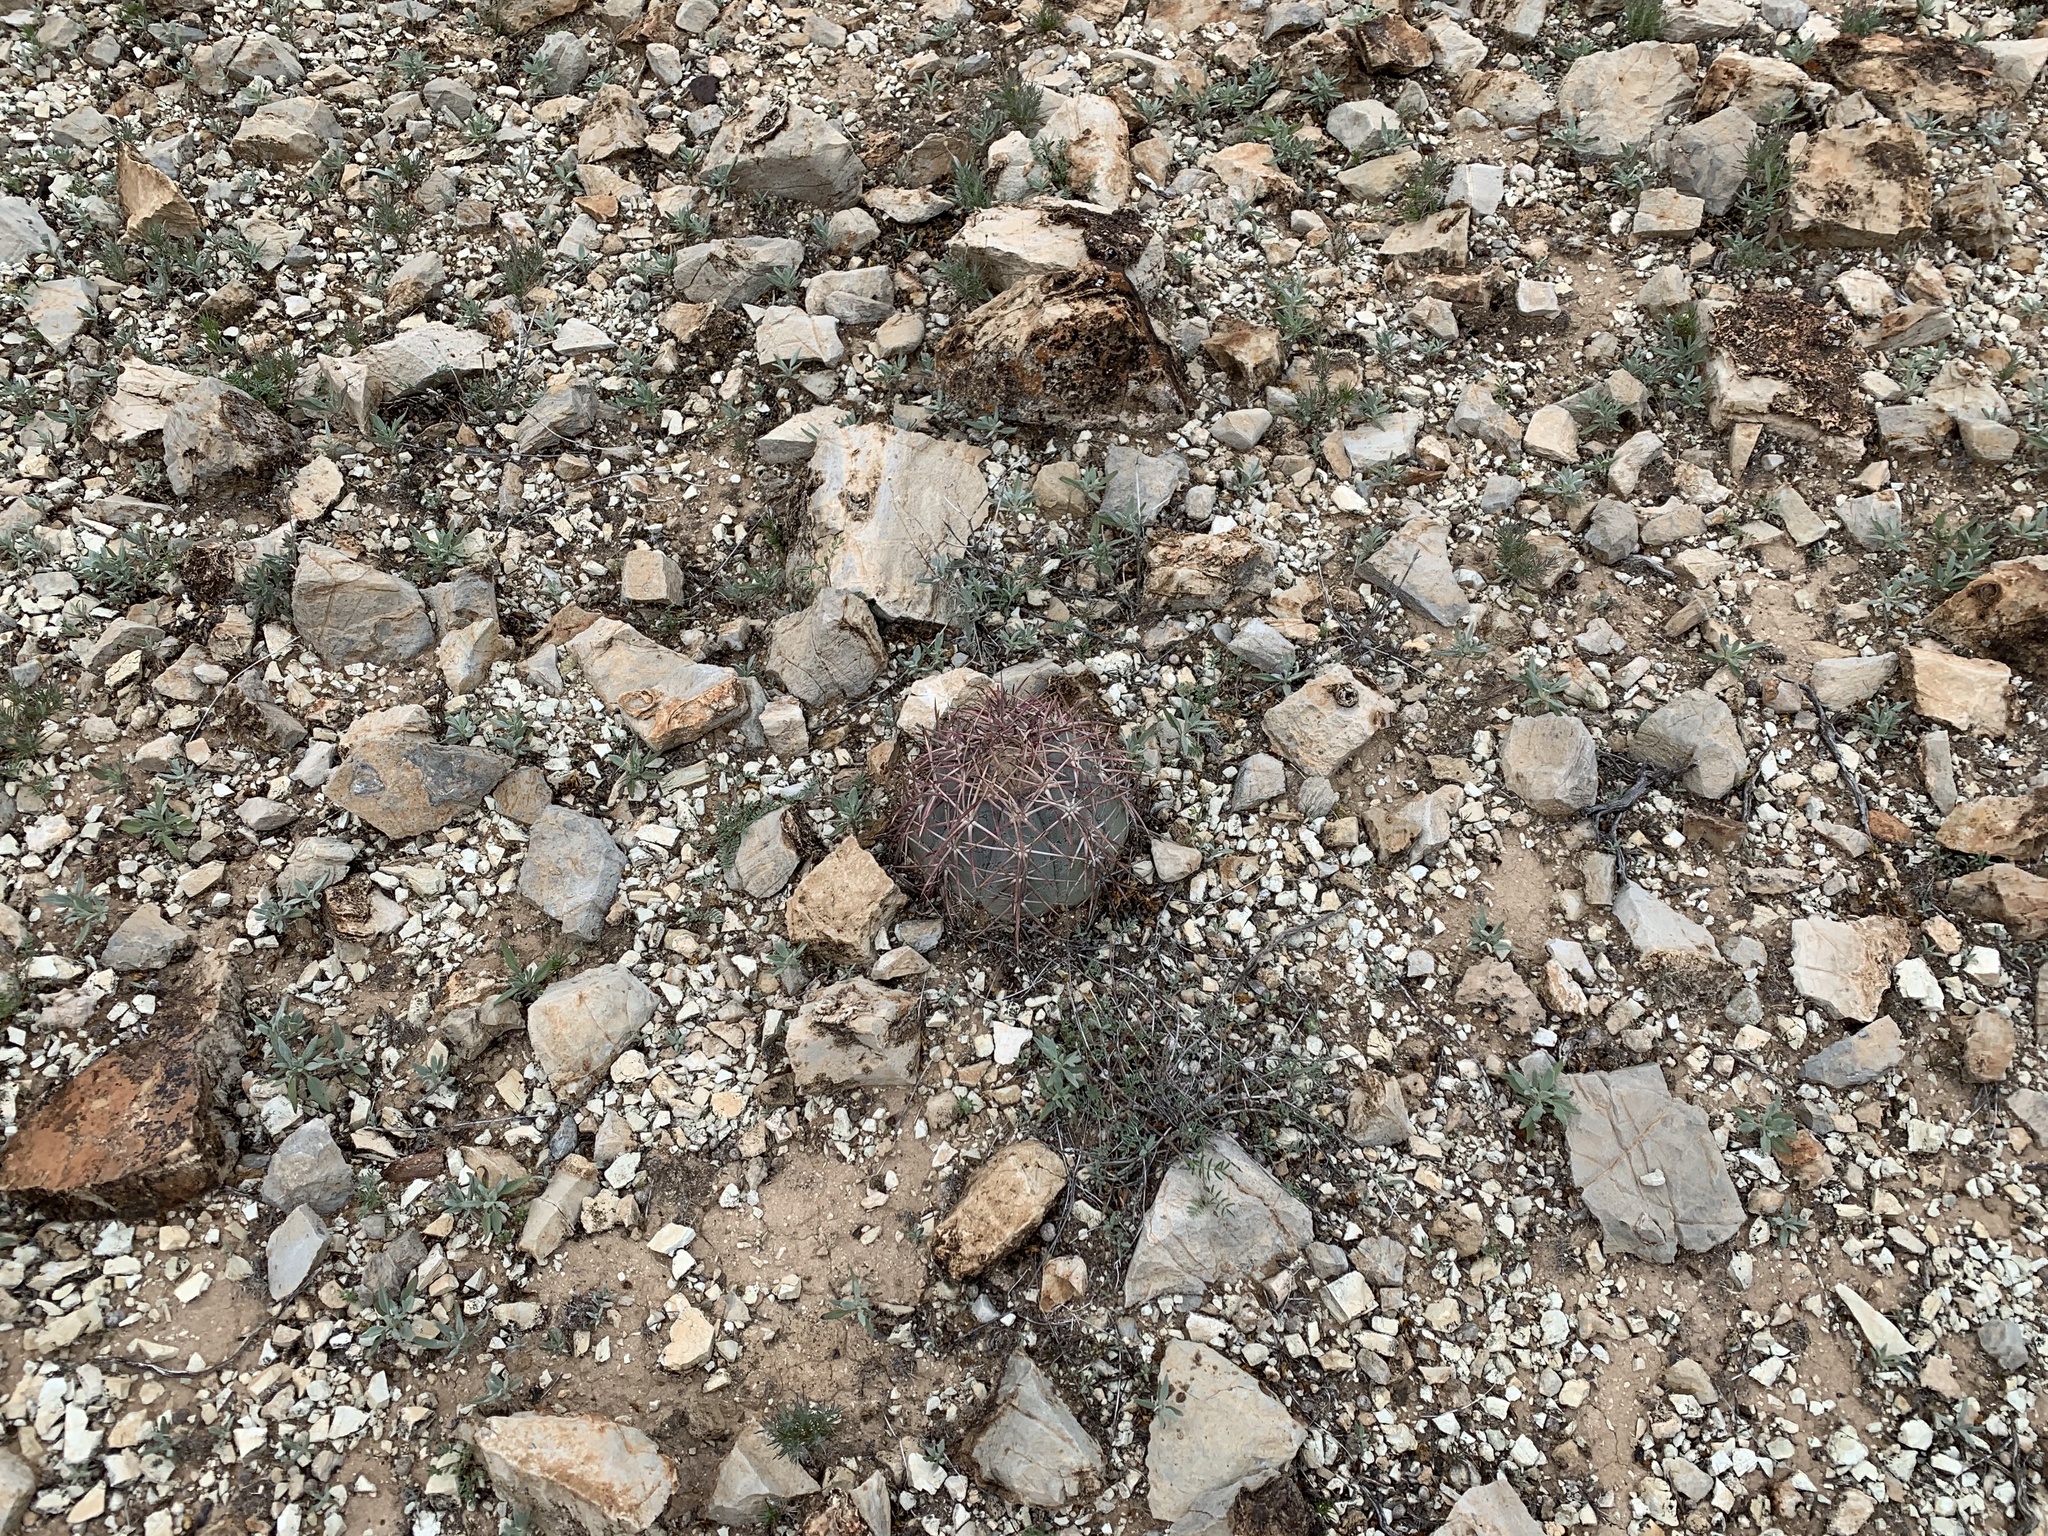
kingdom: Plantae
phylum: Tracheophyta
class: Magnoliopsida
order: Caryophyllales
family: Cactaceae
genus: Echinocactus
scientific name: Echinocactus horizonthalonius
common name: Devilshead
